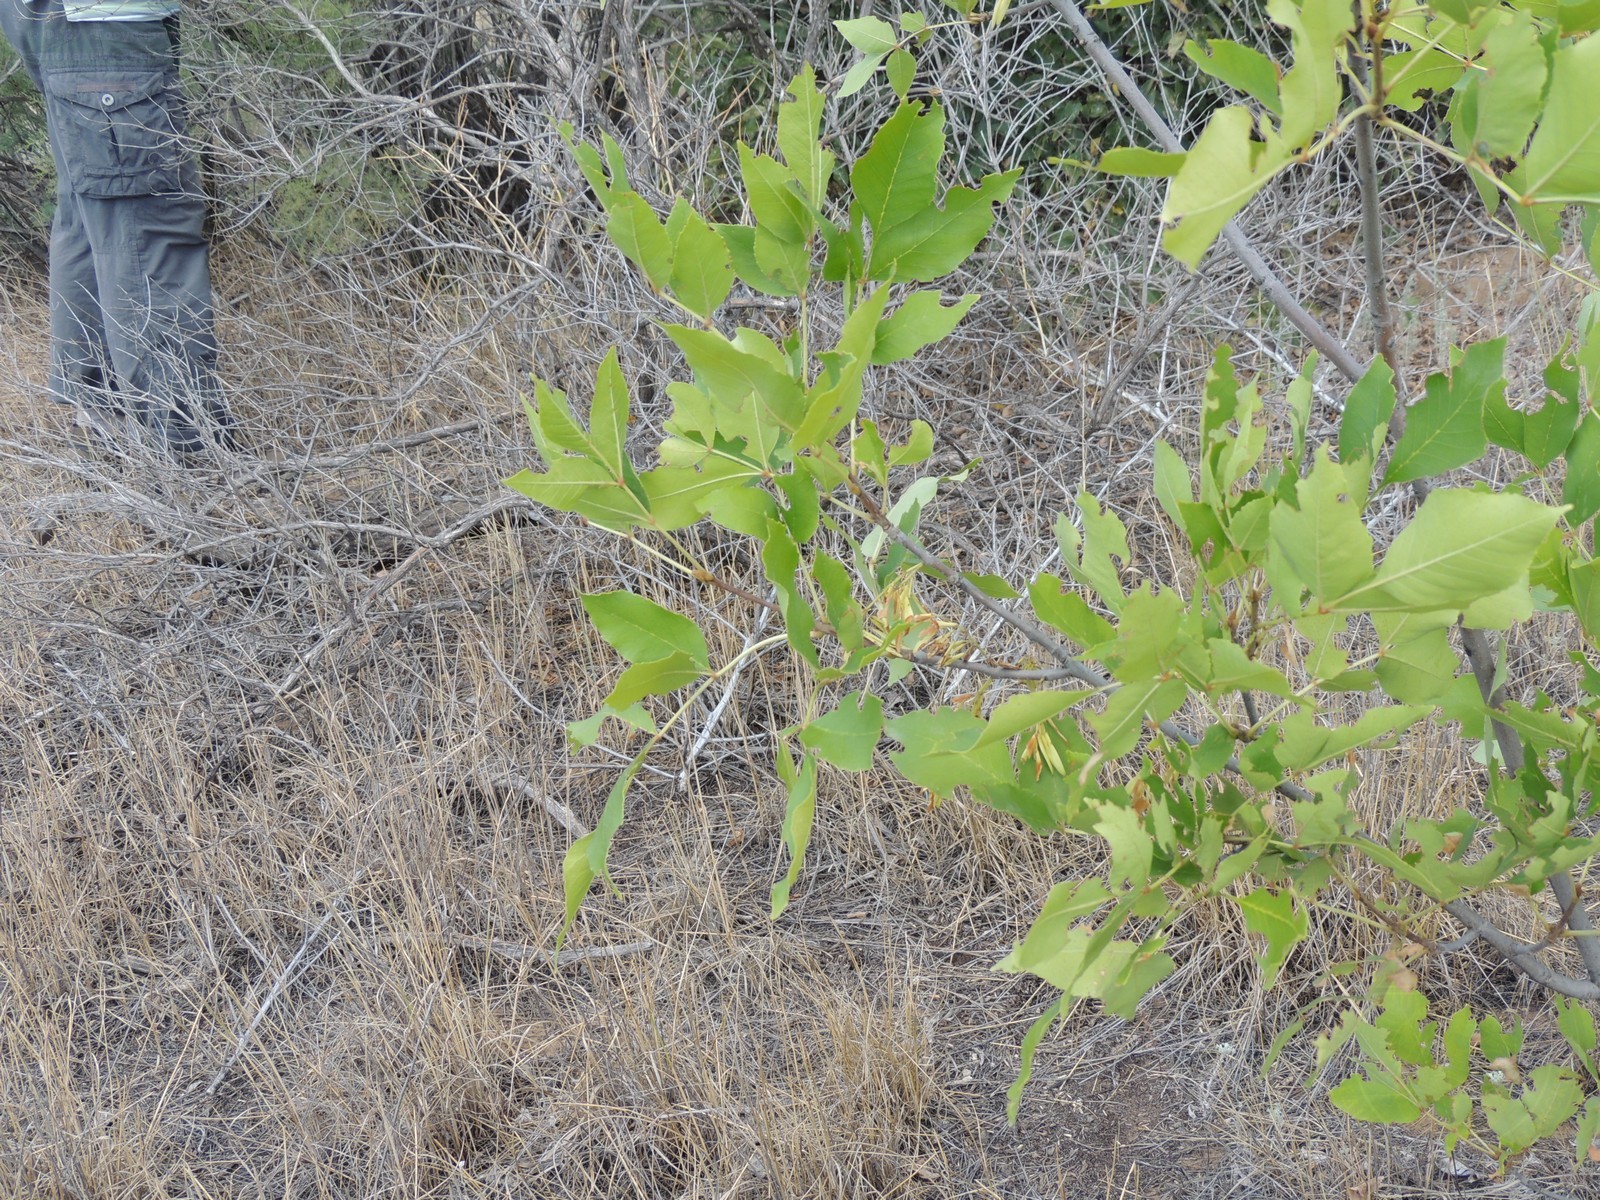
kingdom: Plantae
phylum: Tracheophyta
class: Magnoliopsida
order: Lamiales
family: Oleaceae
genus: Fraxinus
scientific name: Fraxinus pennsylvanica
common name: Green ash
